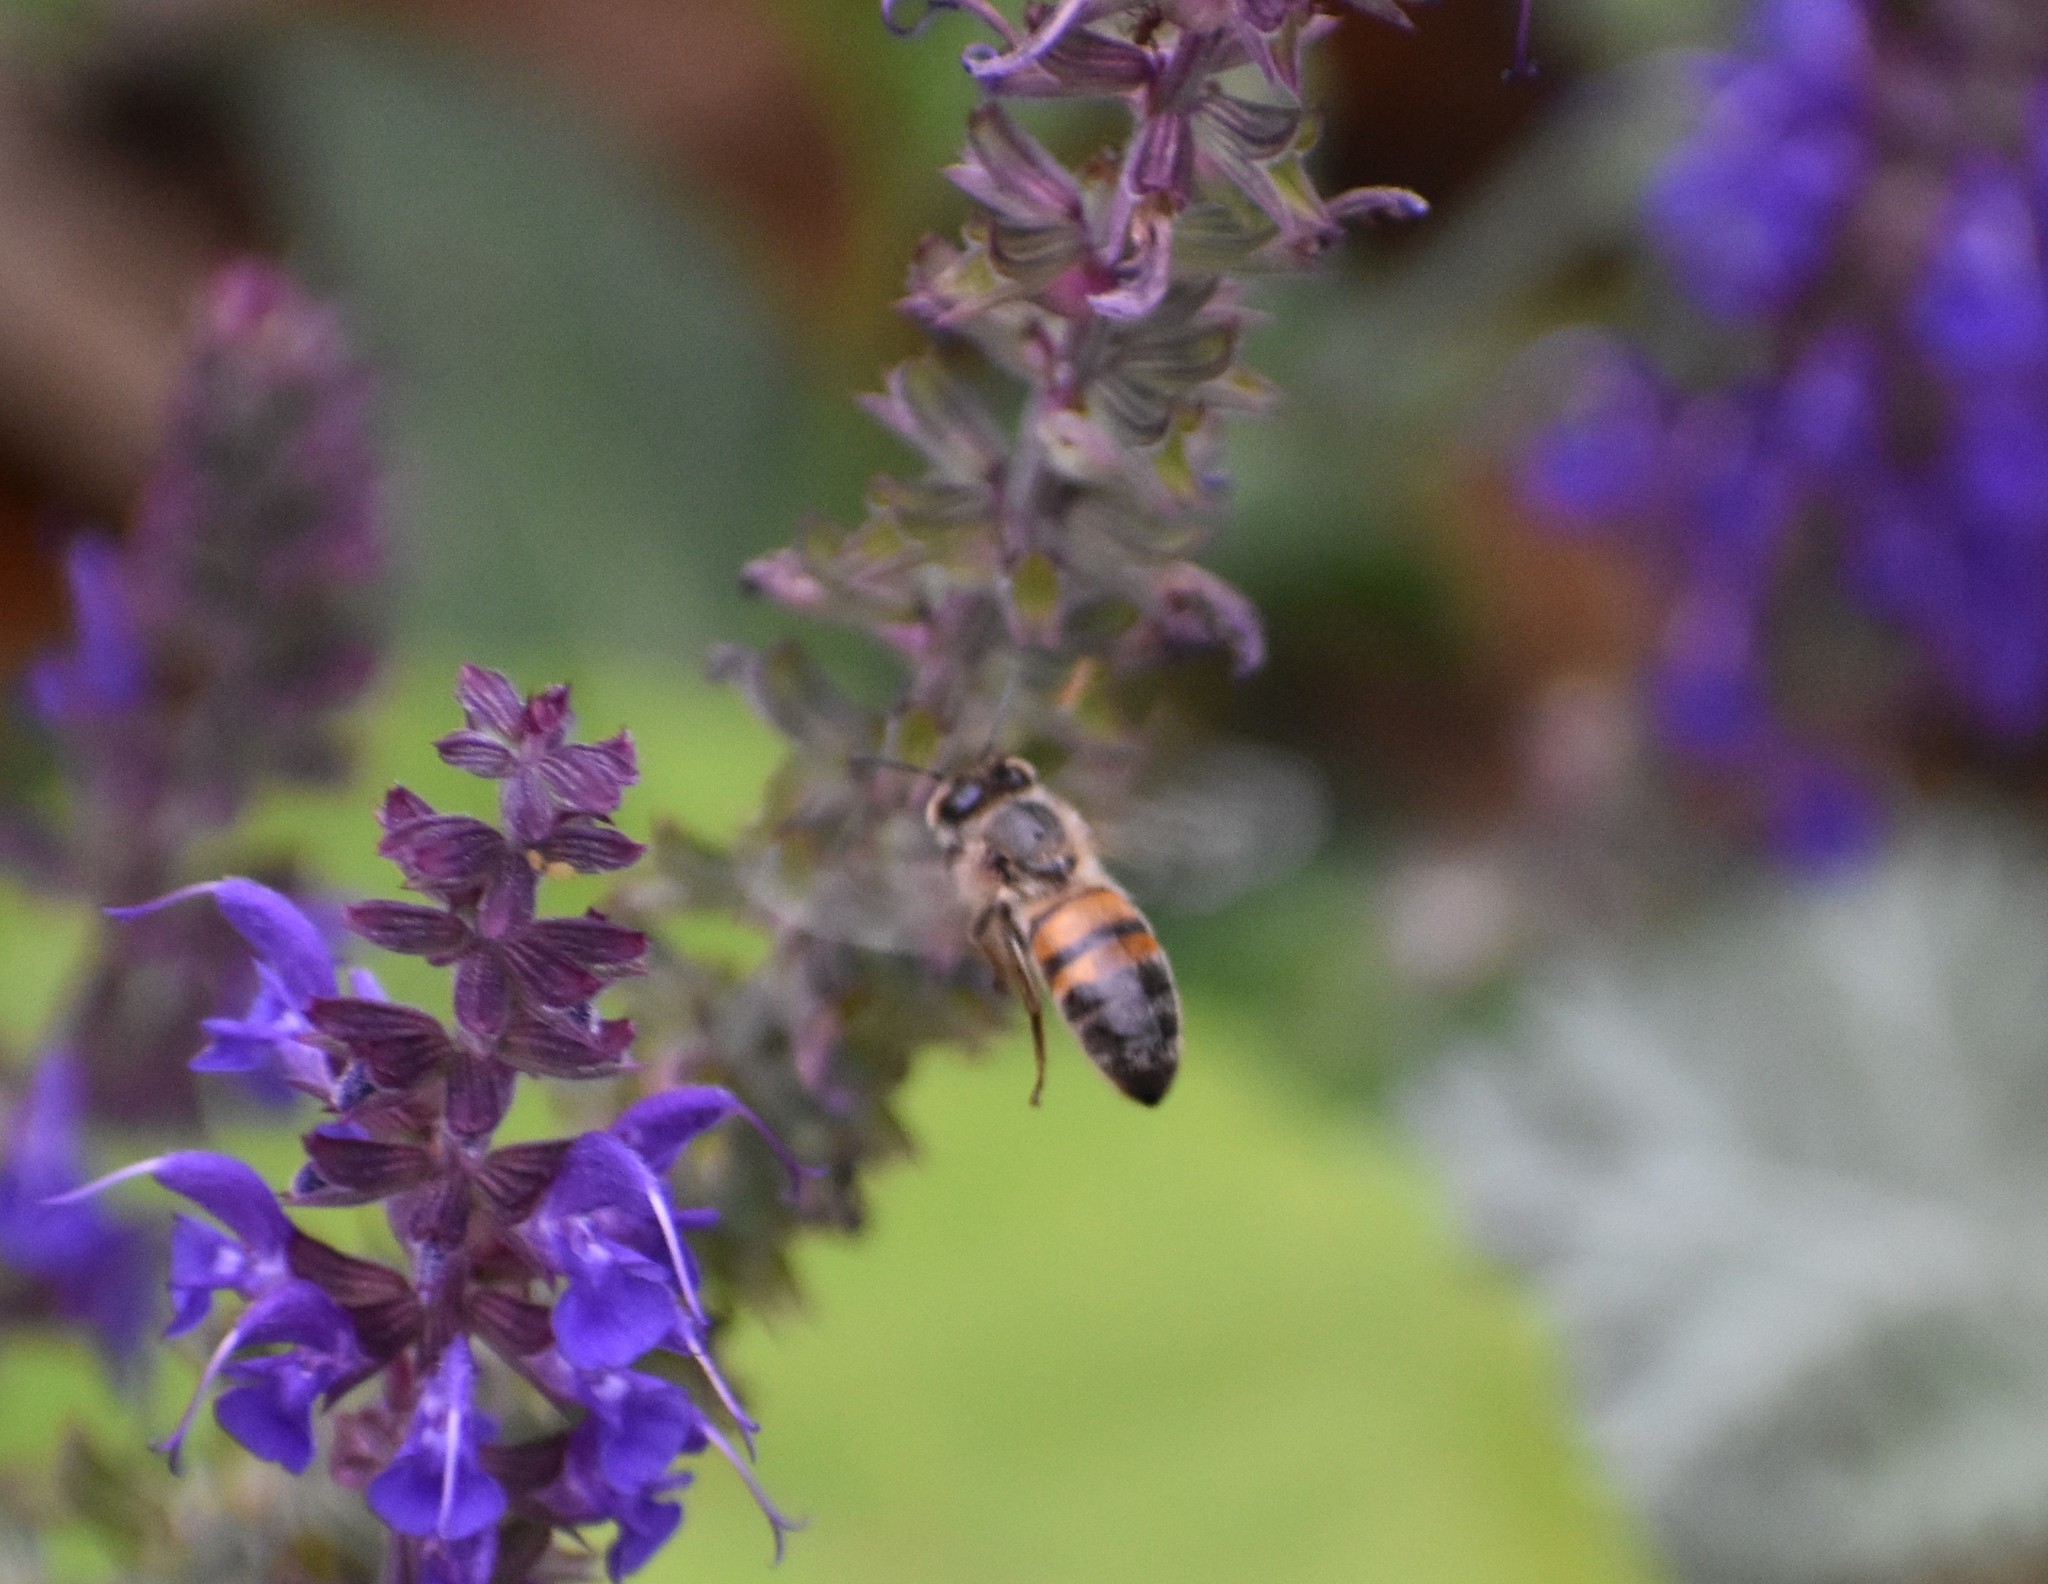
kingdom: Animalia
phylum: Arthropoda
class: Insecta
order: Hymenoptera
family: Apidae
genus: Apis
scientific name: Apis mellifera
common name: Honey bee
